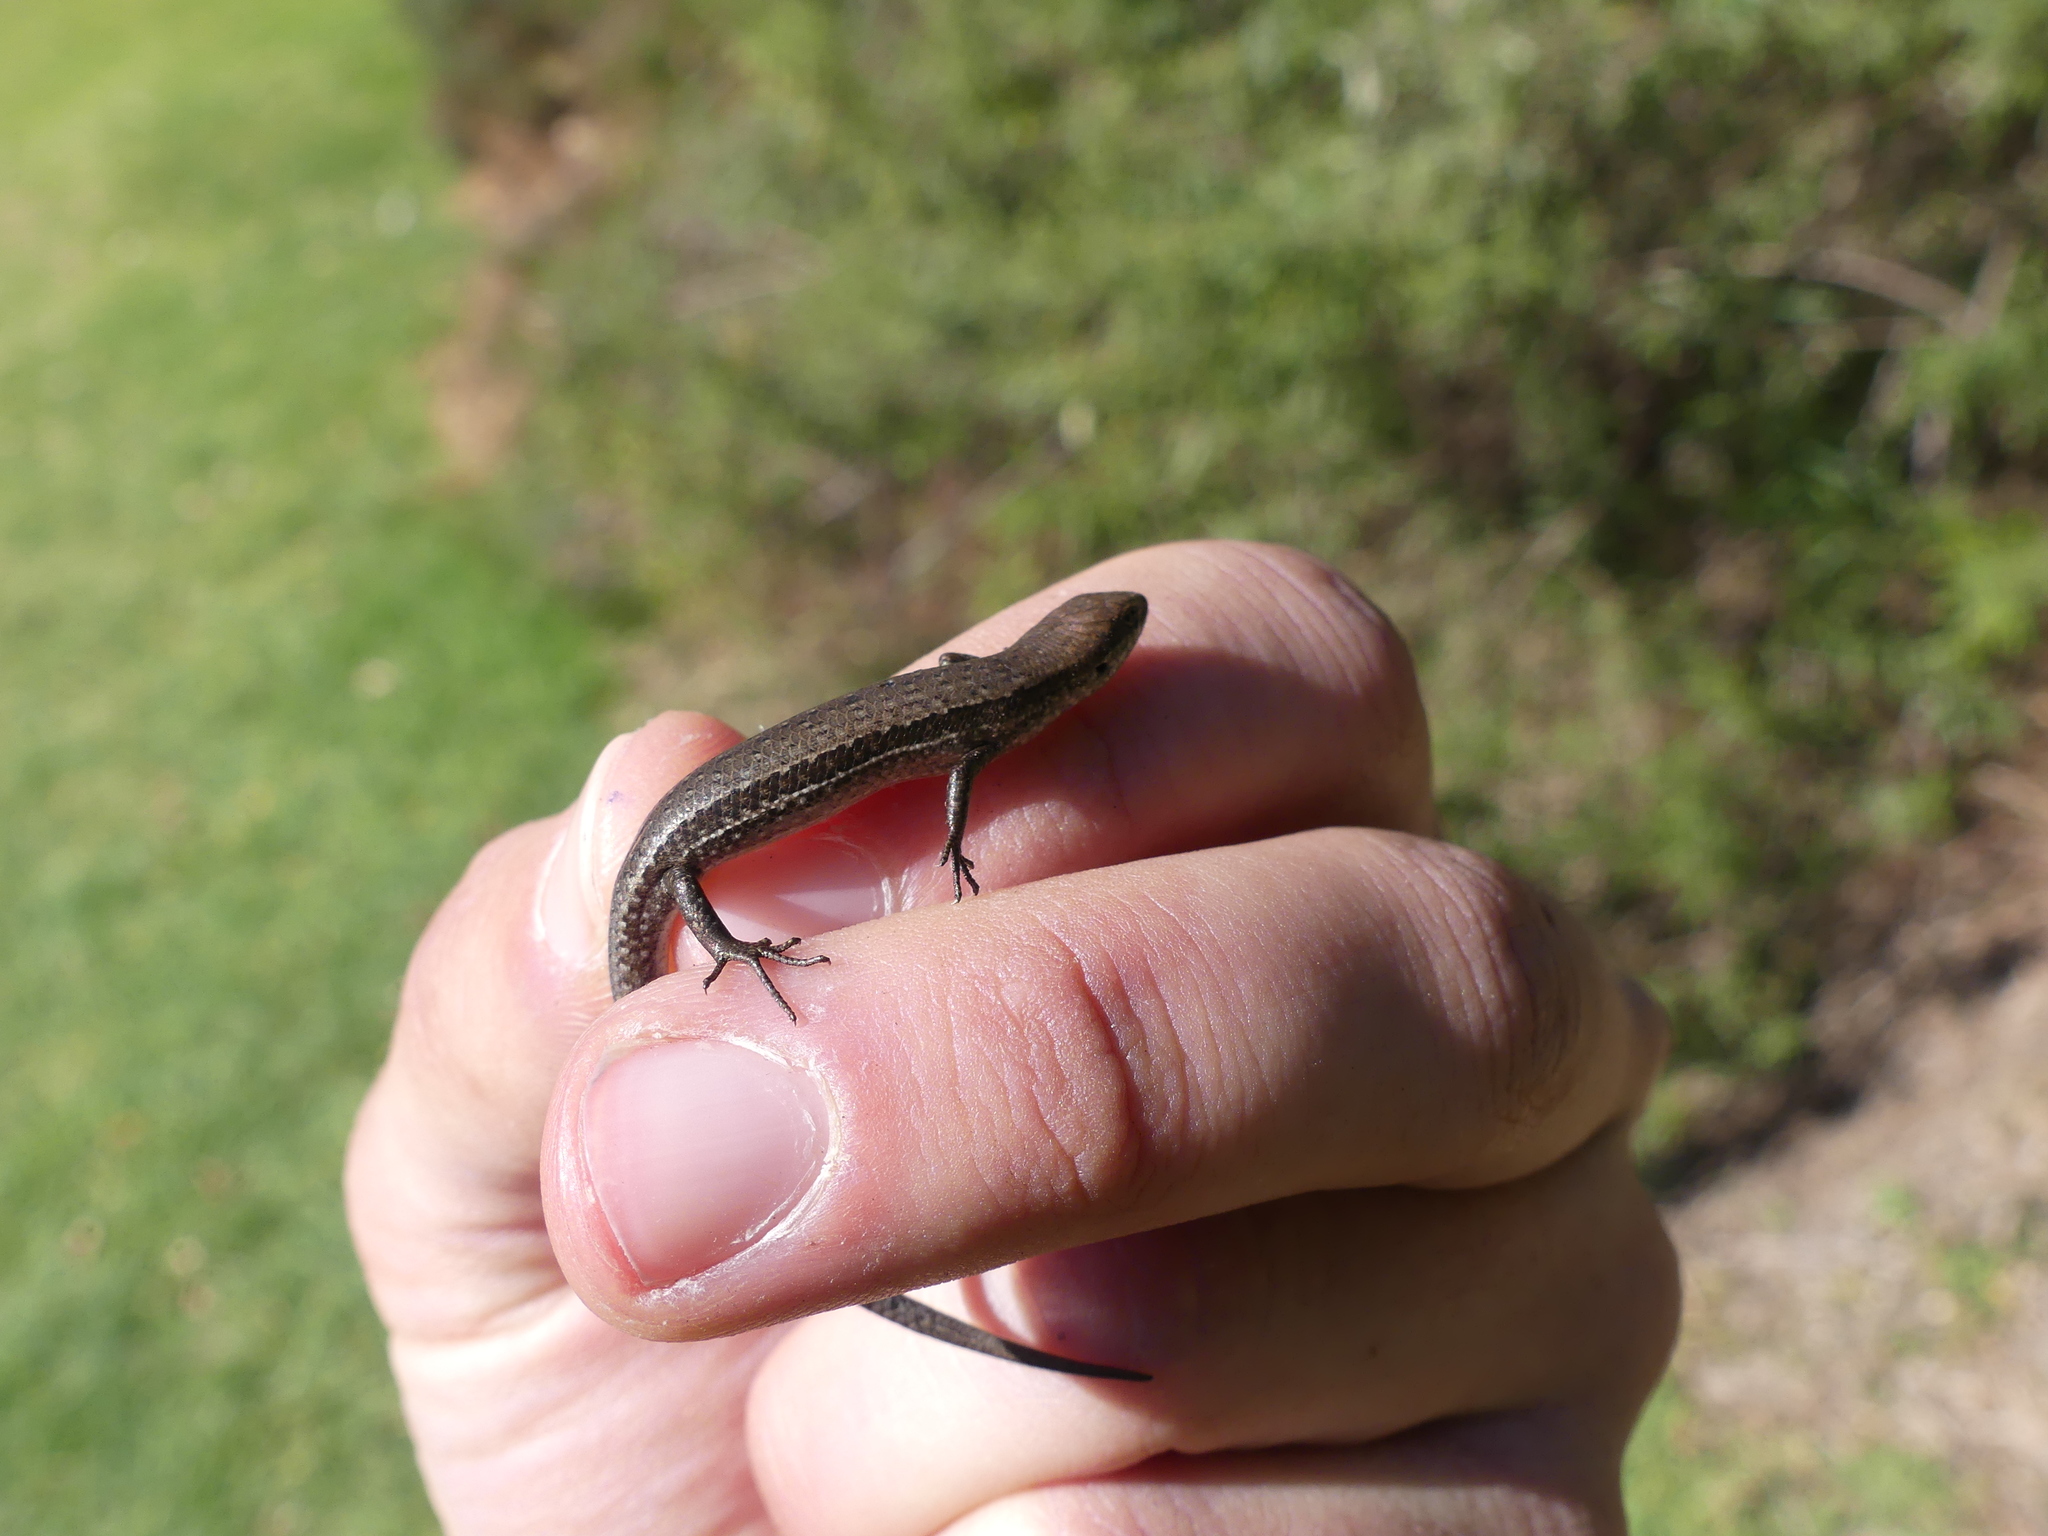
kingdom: Animalia
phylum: Chordata
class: Squamata
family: Scincidae
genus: Lampropholis
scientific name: Lampropholis guichenoti
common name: Garden skink
